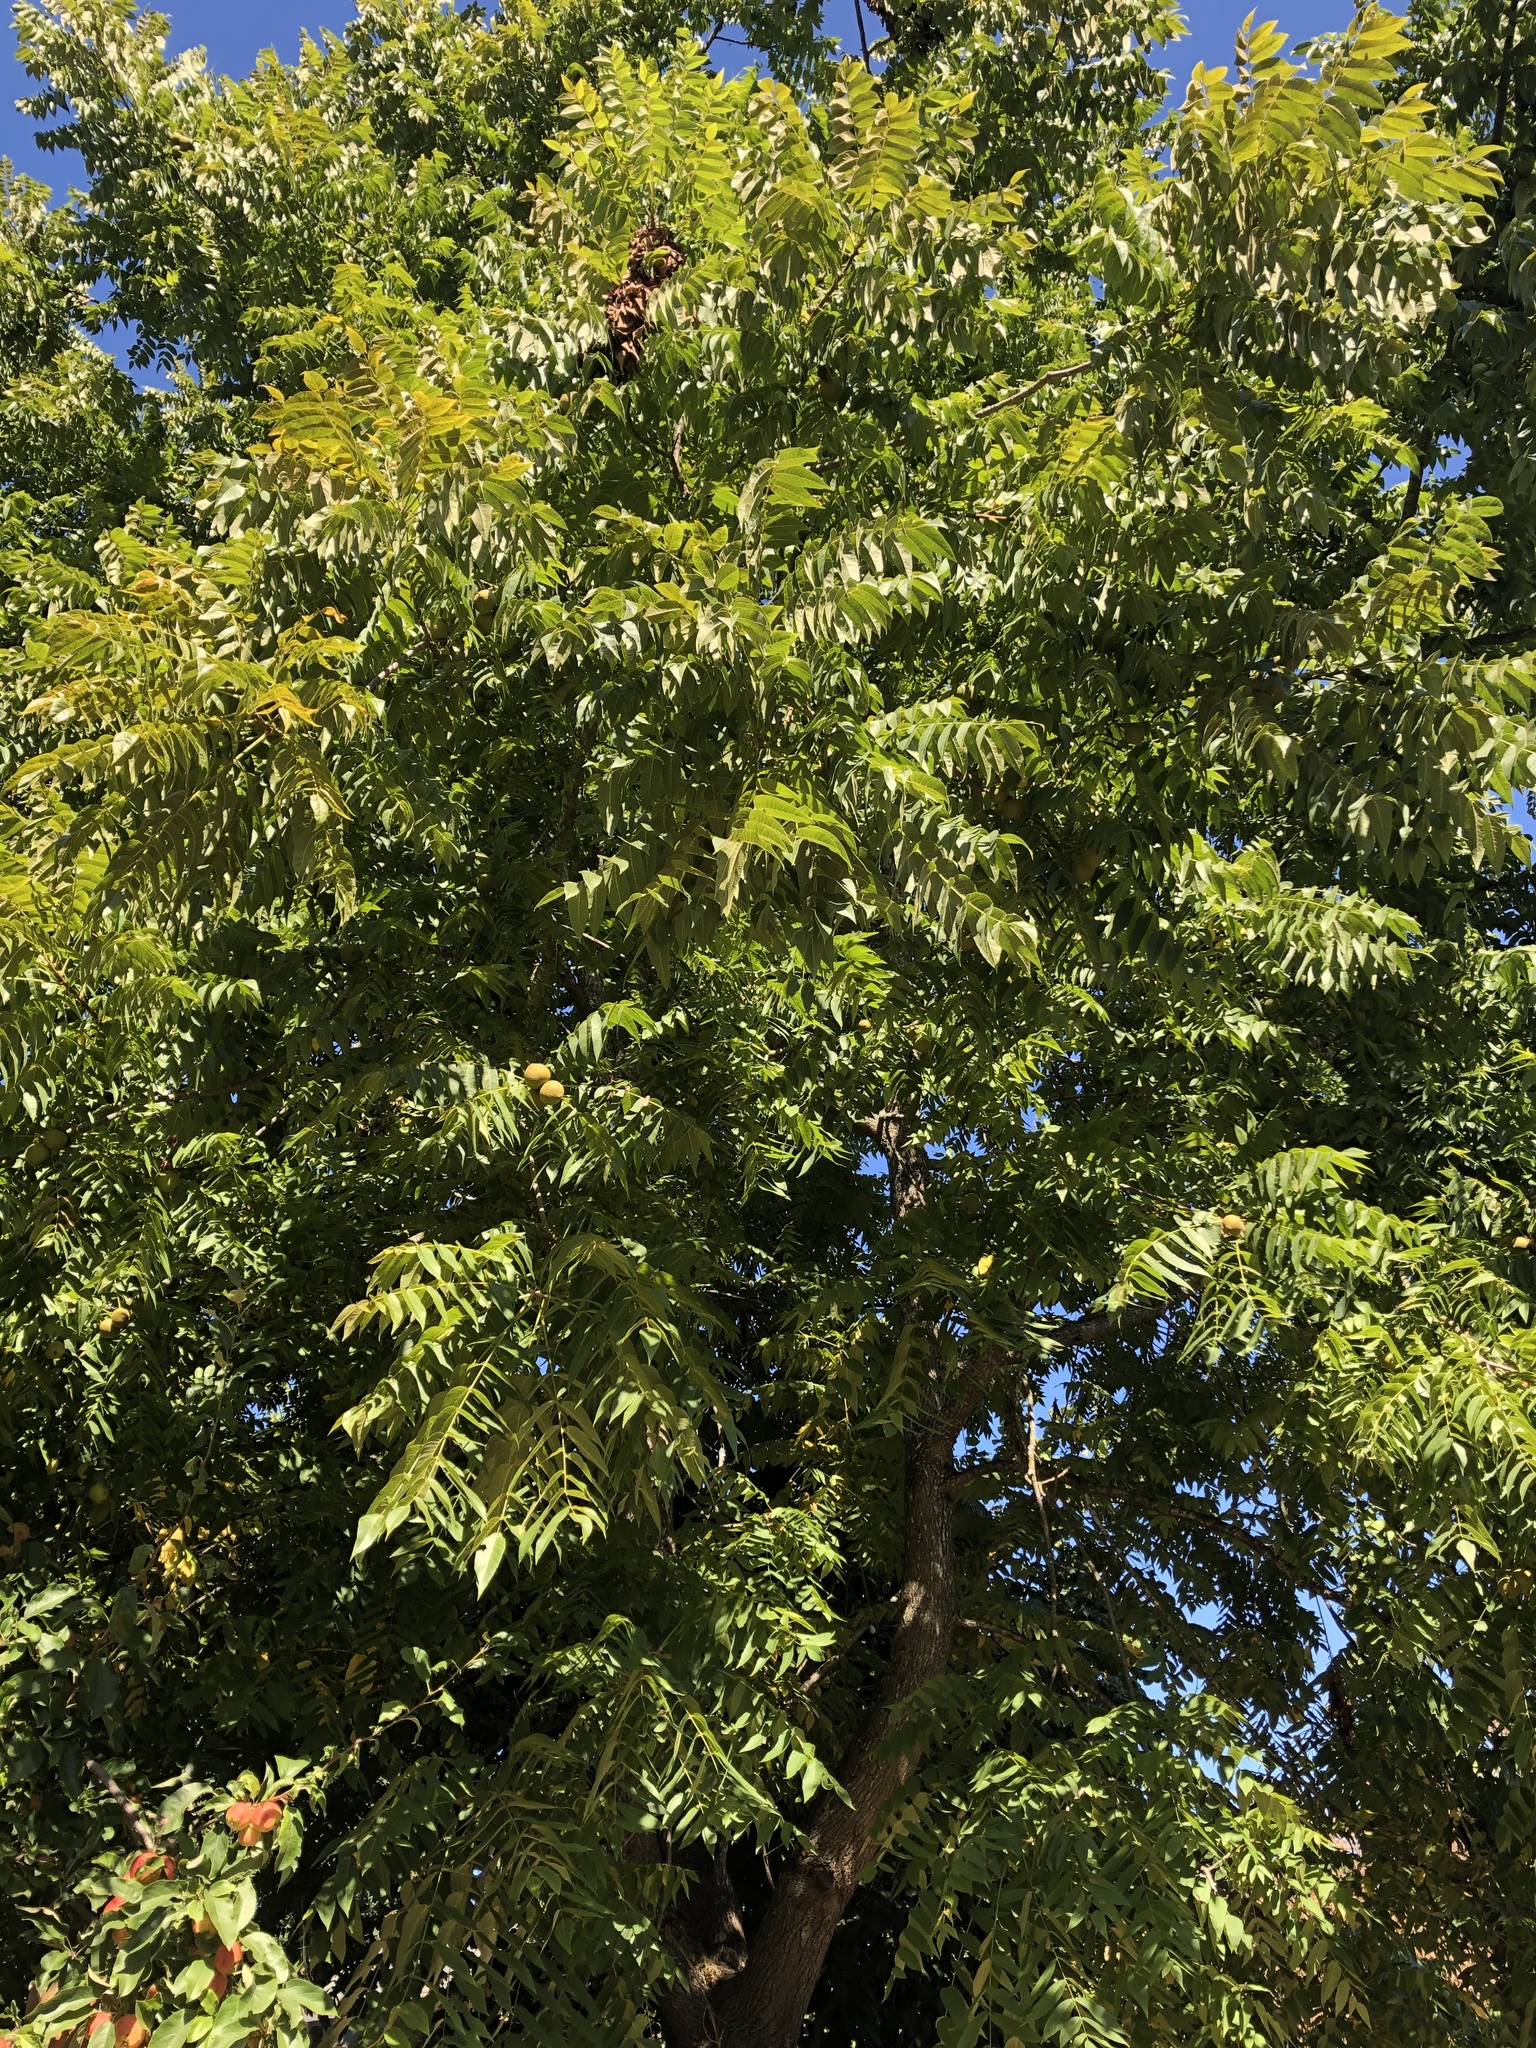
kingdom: Plantae
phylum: Tracheophyta
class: Magnoliopsida
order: Fagales
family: Juglandaceae
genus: Juglans
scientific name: Juglans nigra
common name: Black walnut
